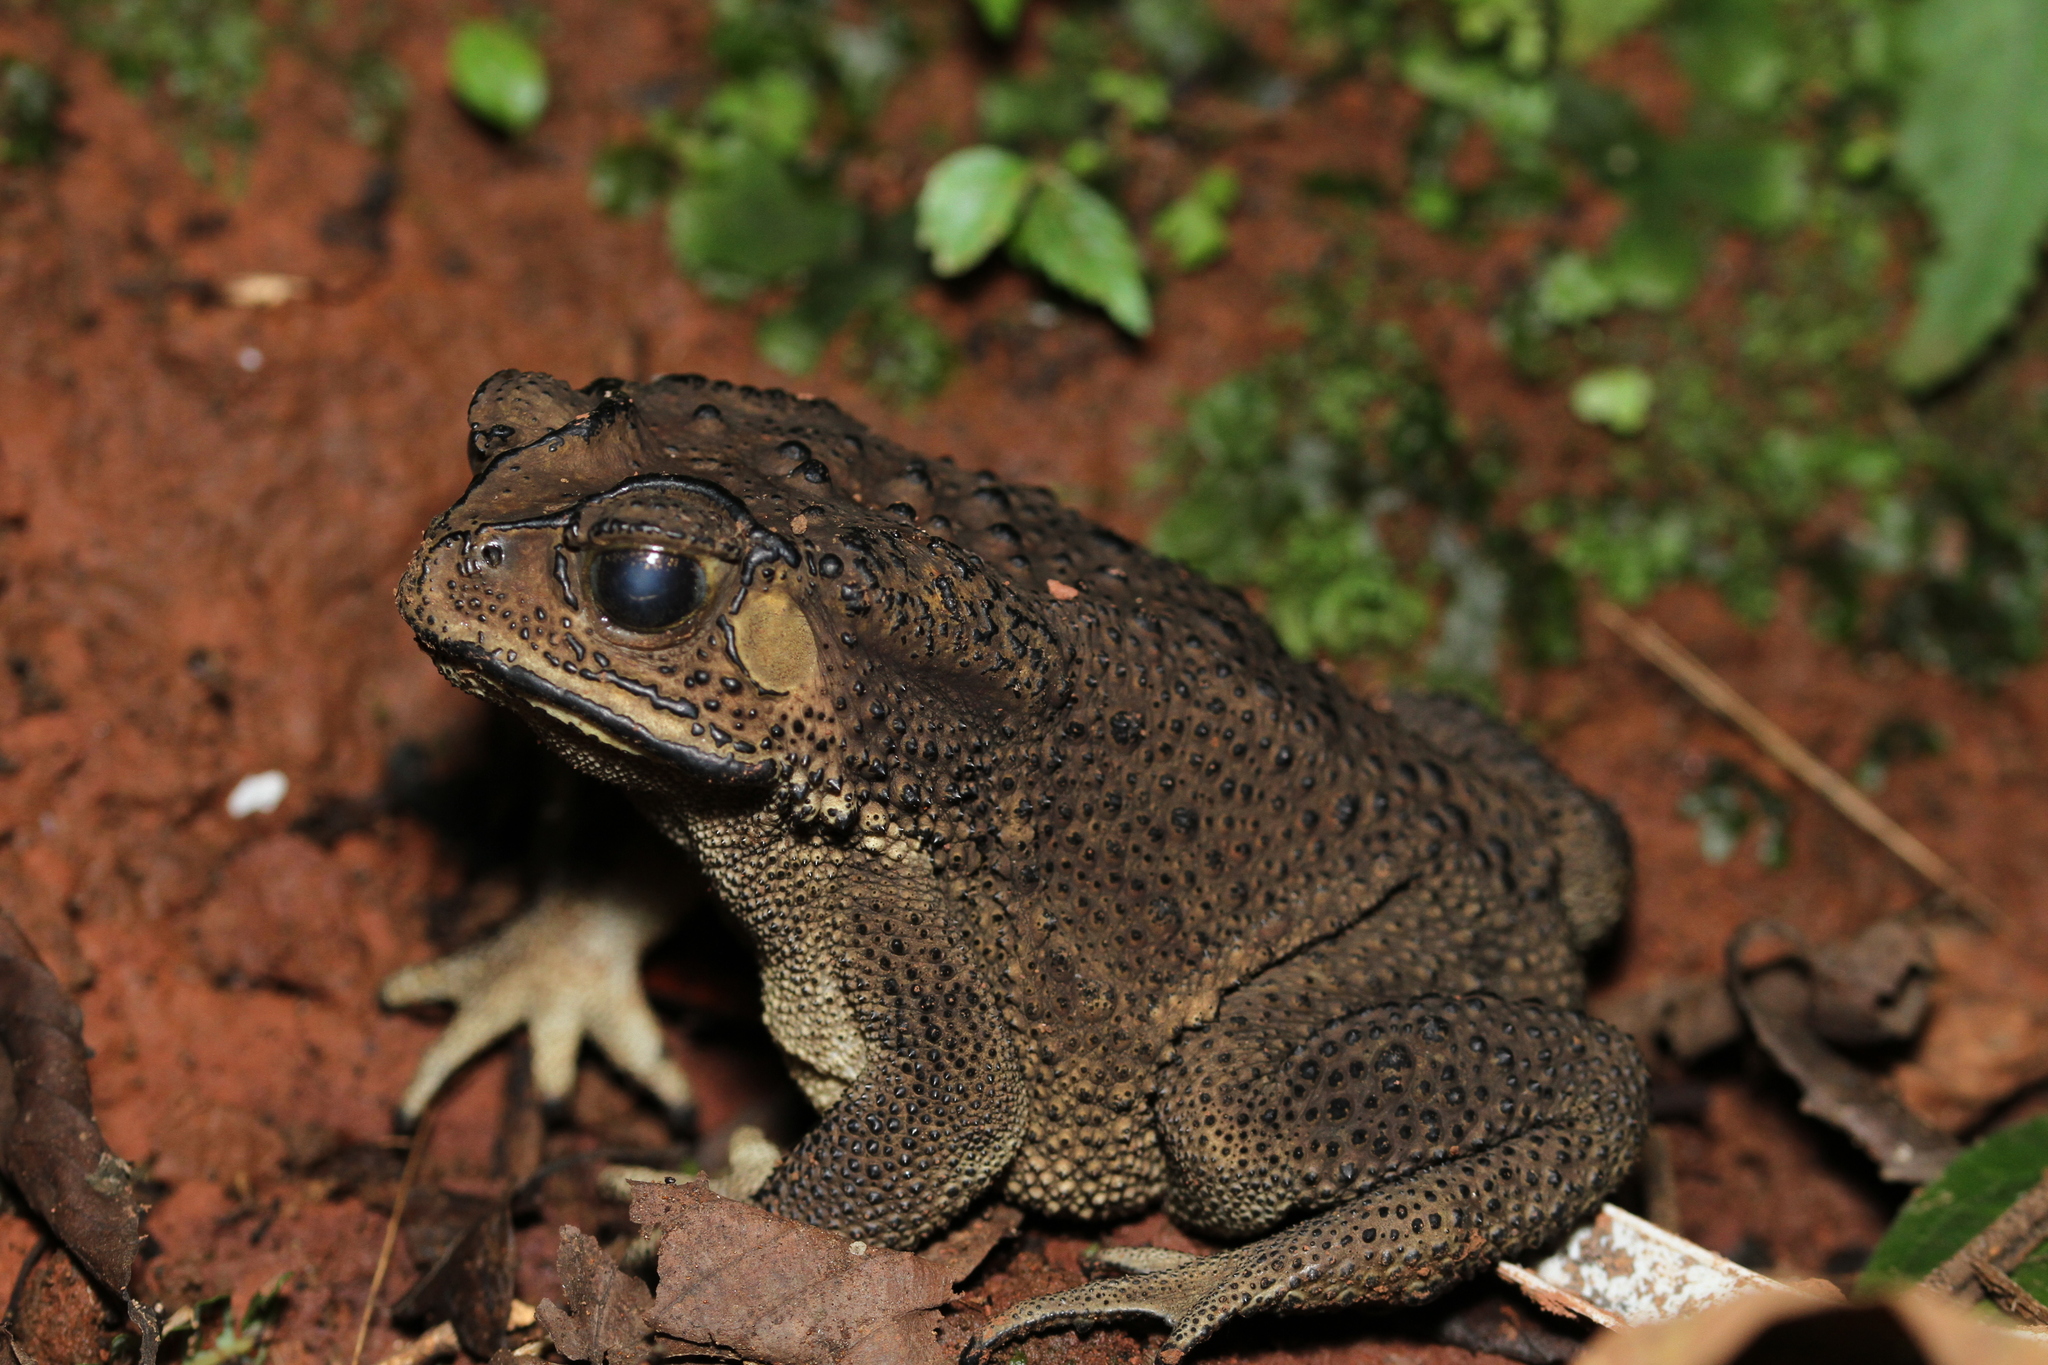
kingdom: Animalia
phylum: Chordata
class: Amphibia
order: Anura
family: Bufonidae
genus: Duttaphrynus
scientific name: Duttaphrynus melanostictus
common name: Common sunda toad
